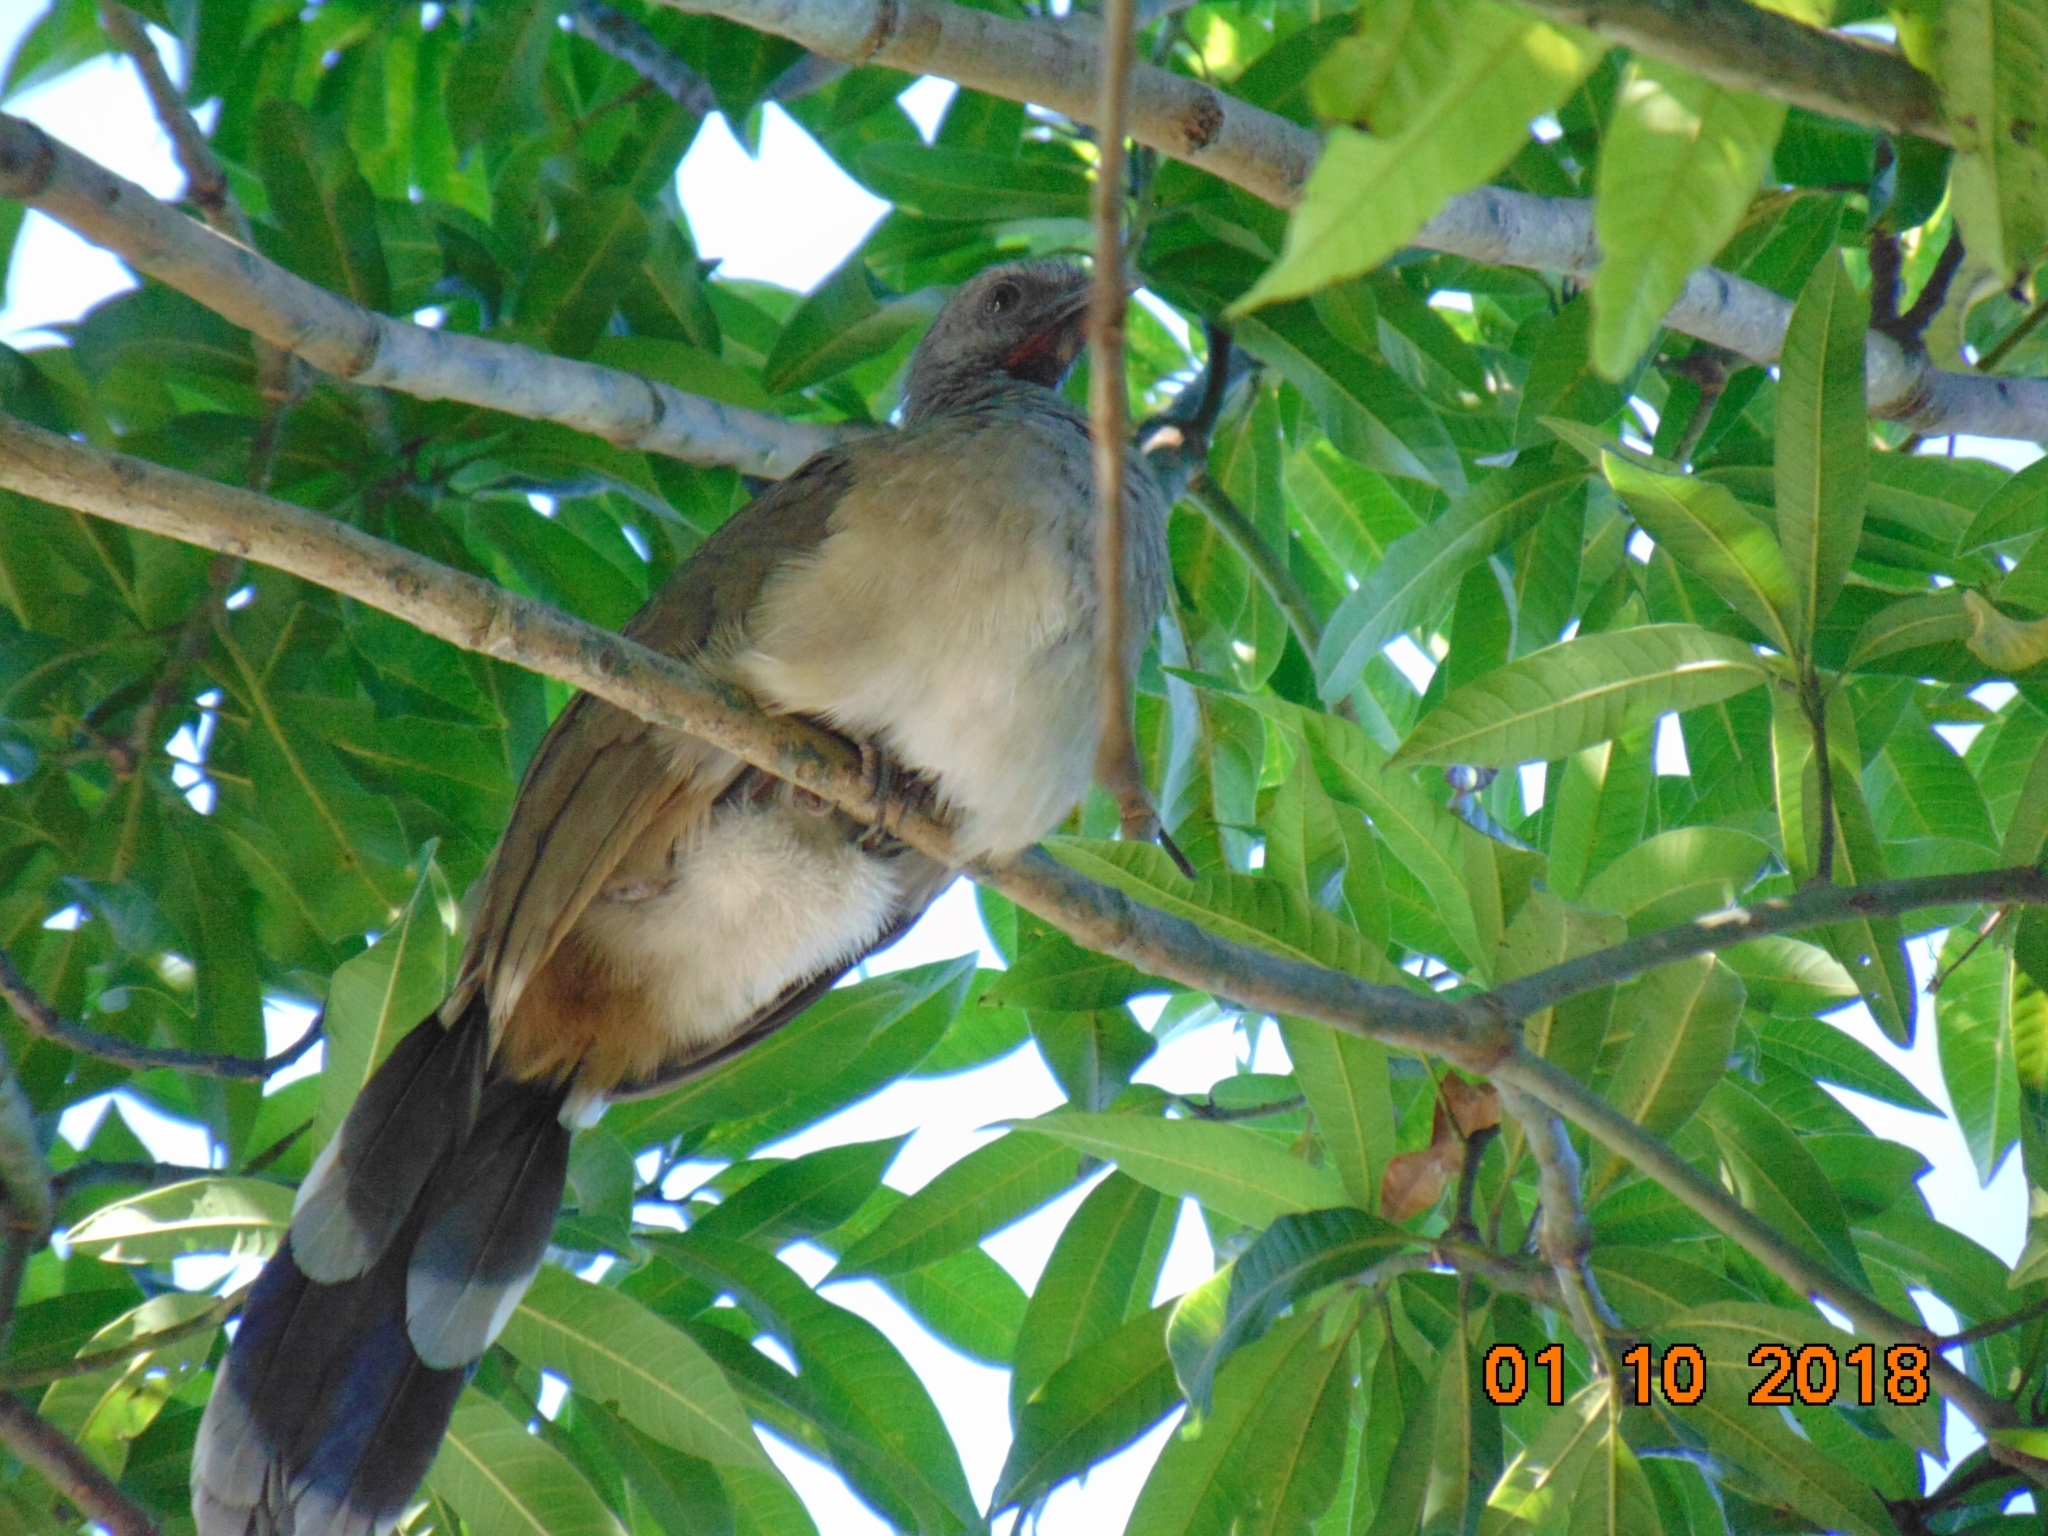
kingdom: Animalia
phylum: Chordata
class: Aves
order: Galliformes
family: Cracidae
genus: Ortalis
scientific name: Ortalis vetula
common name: Plain chachalaca
